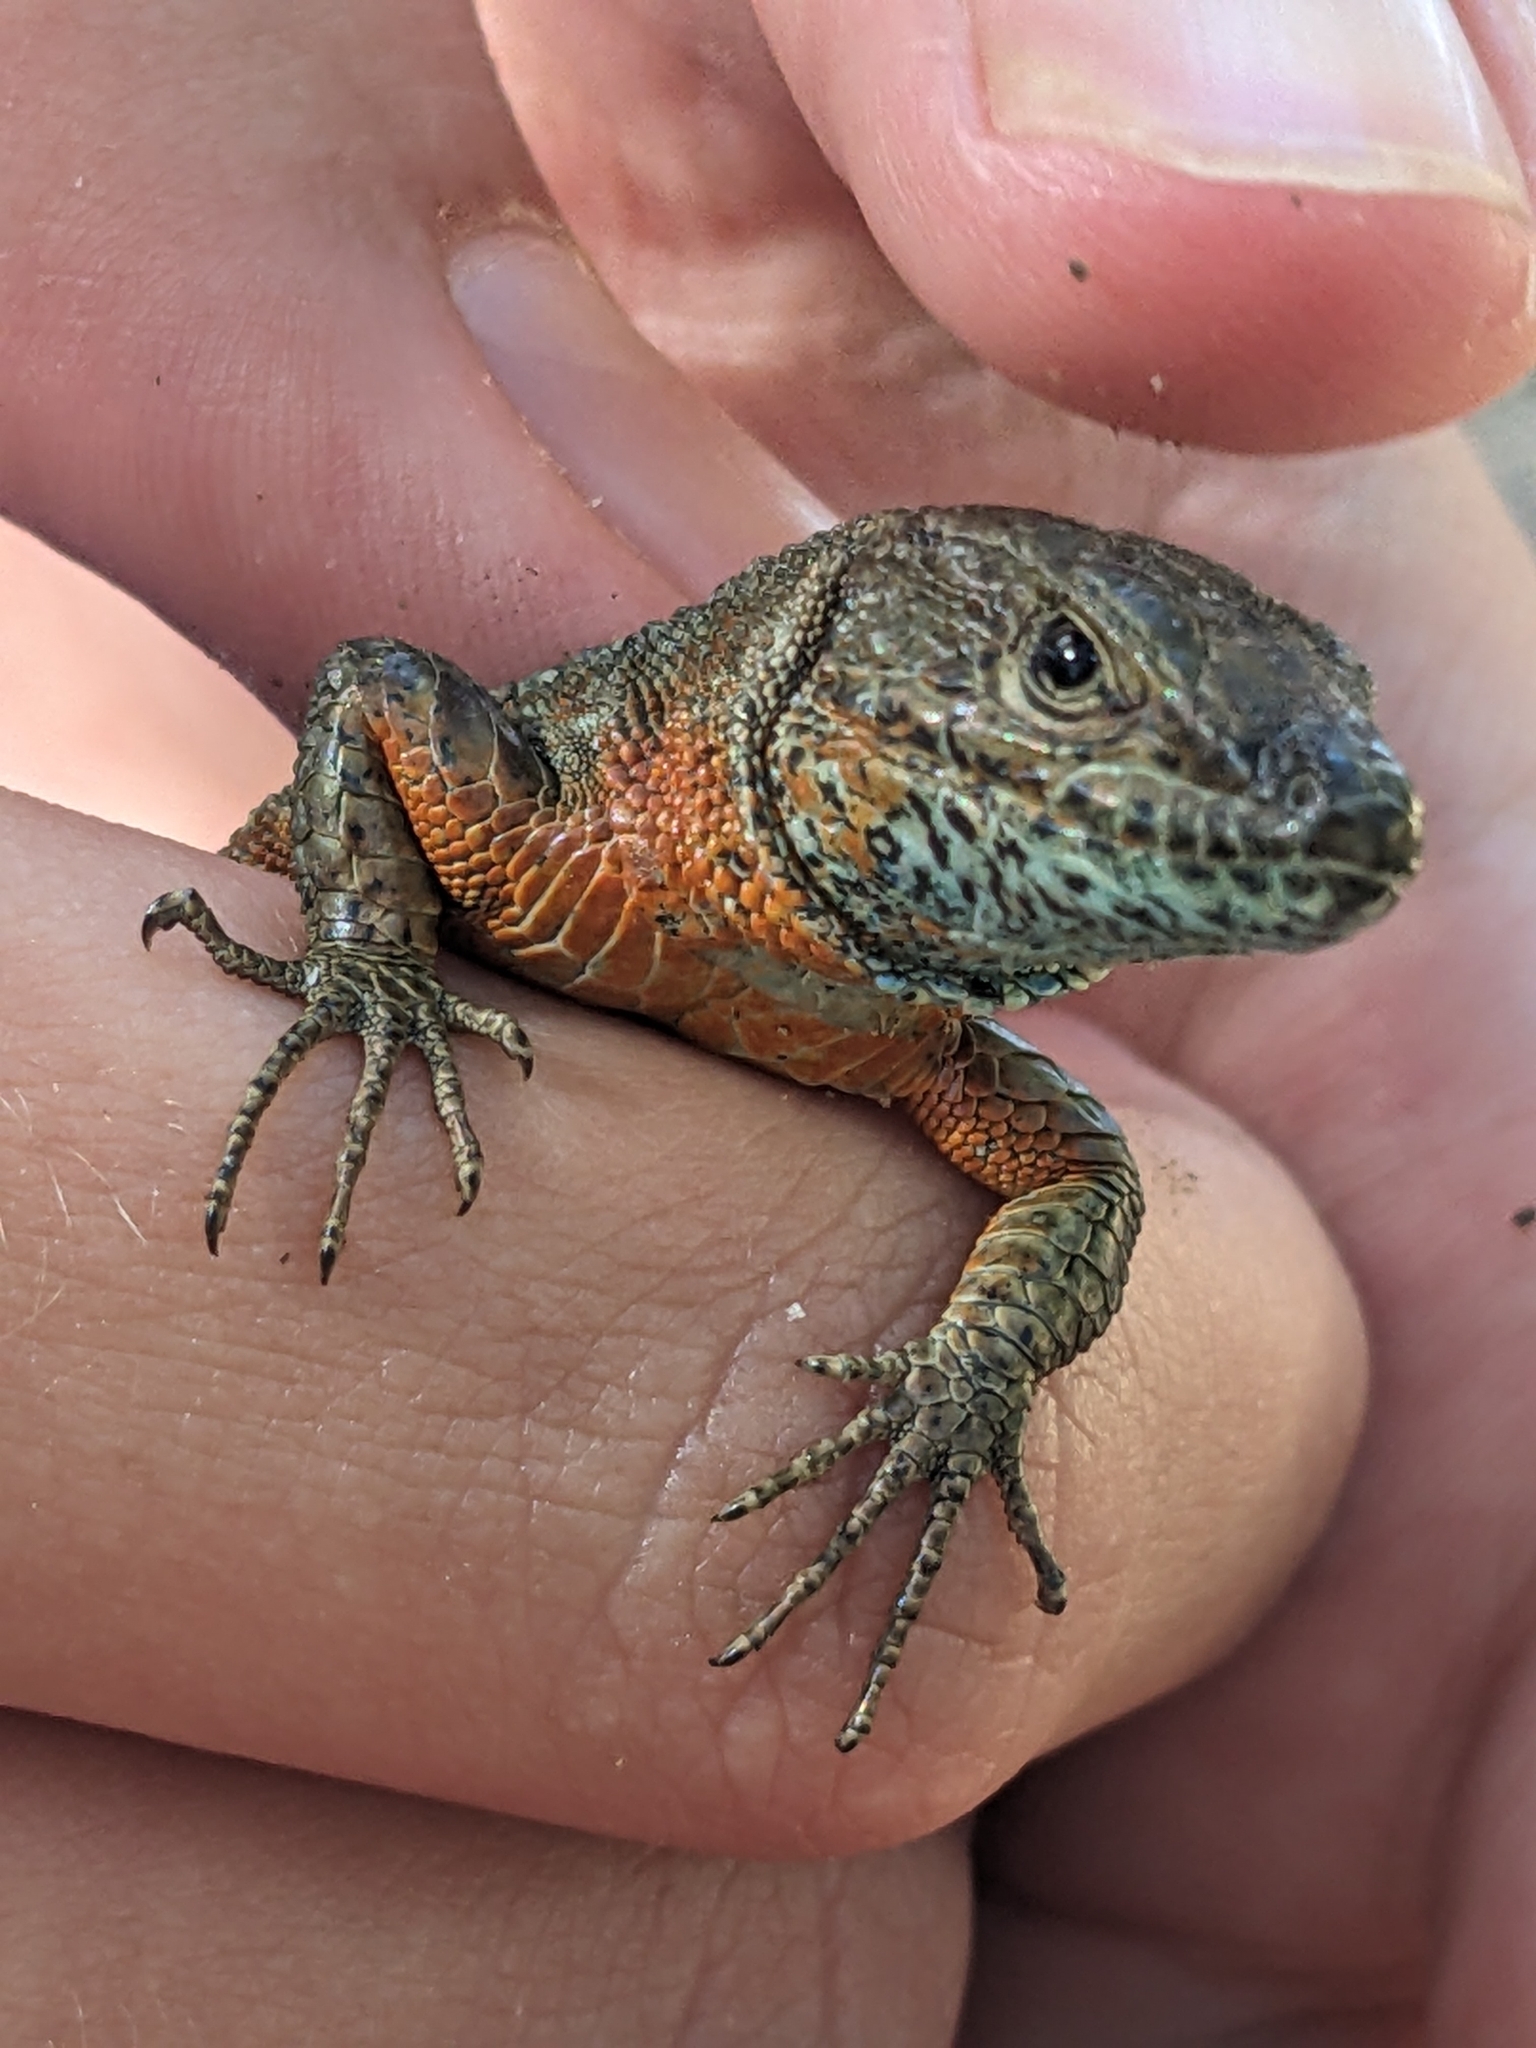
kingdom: Animalia
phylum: Chordata
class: Squamata
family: Lacertidae
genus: Algyroides
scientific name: Algyroides nigropunctatus
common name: Blue-throated keeled lizard
